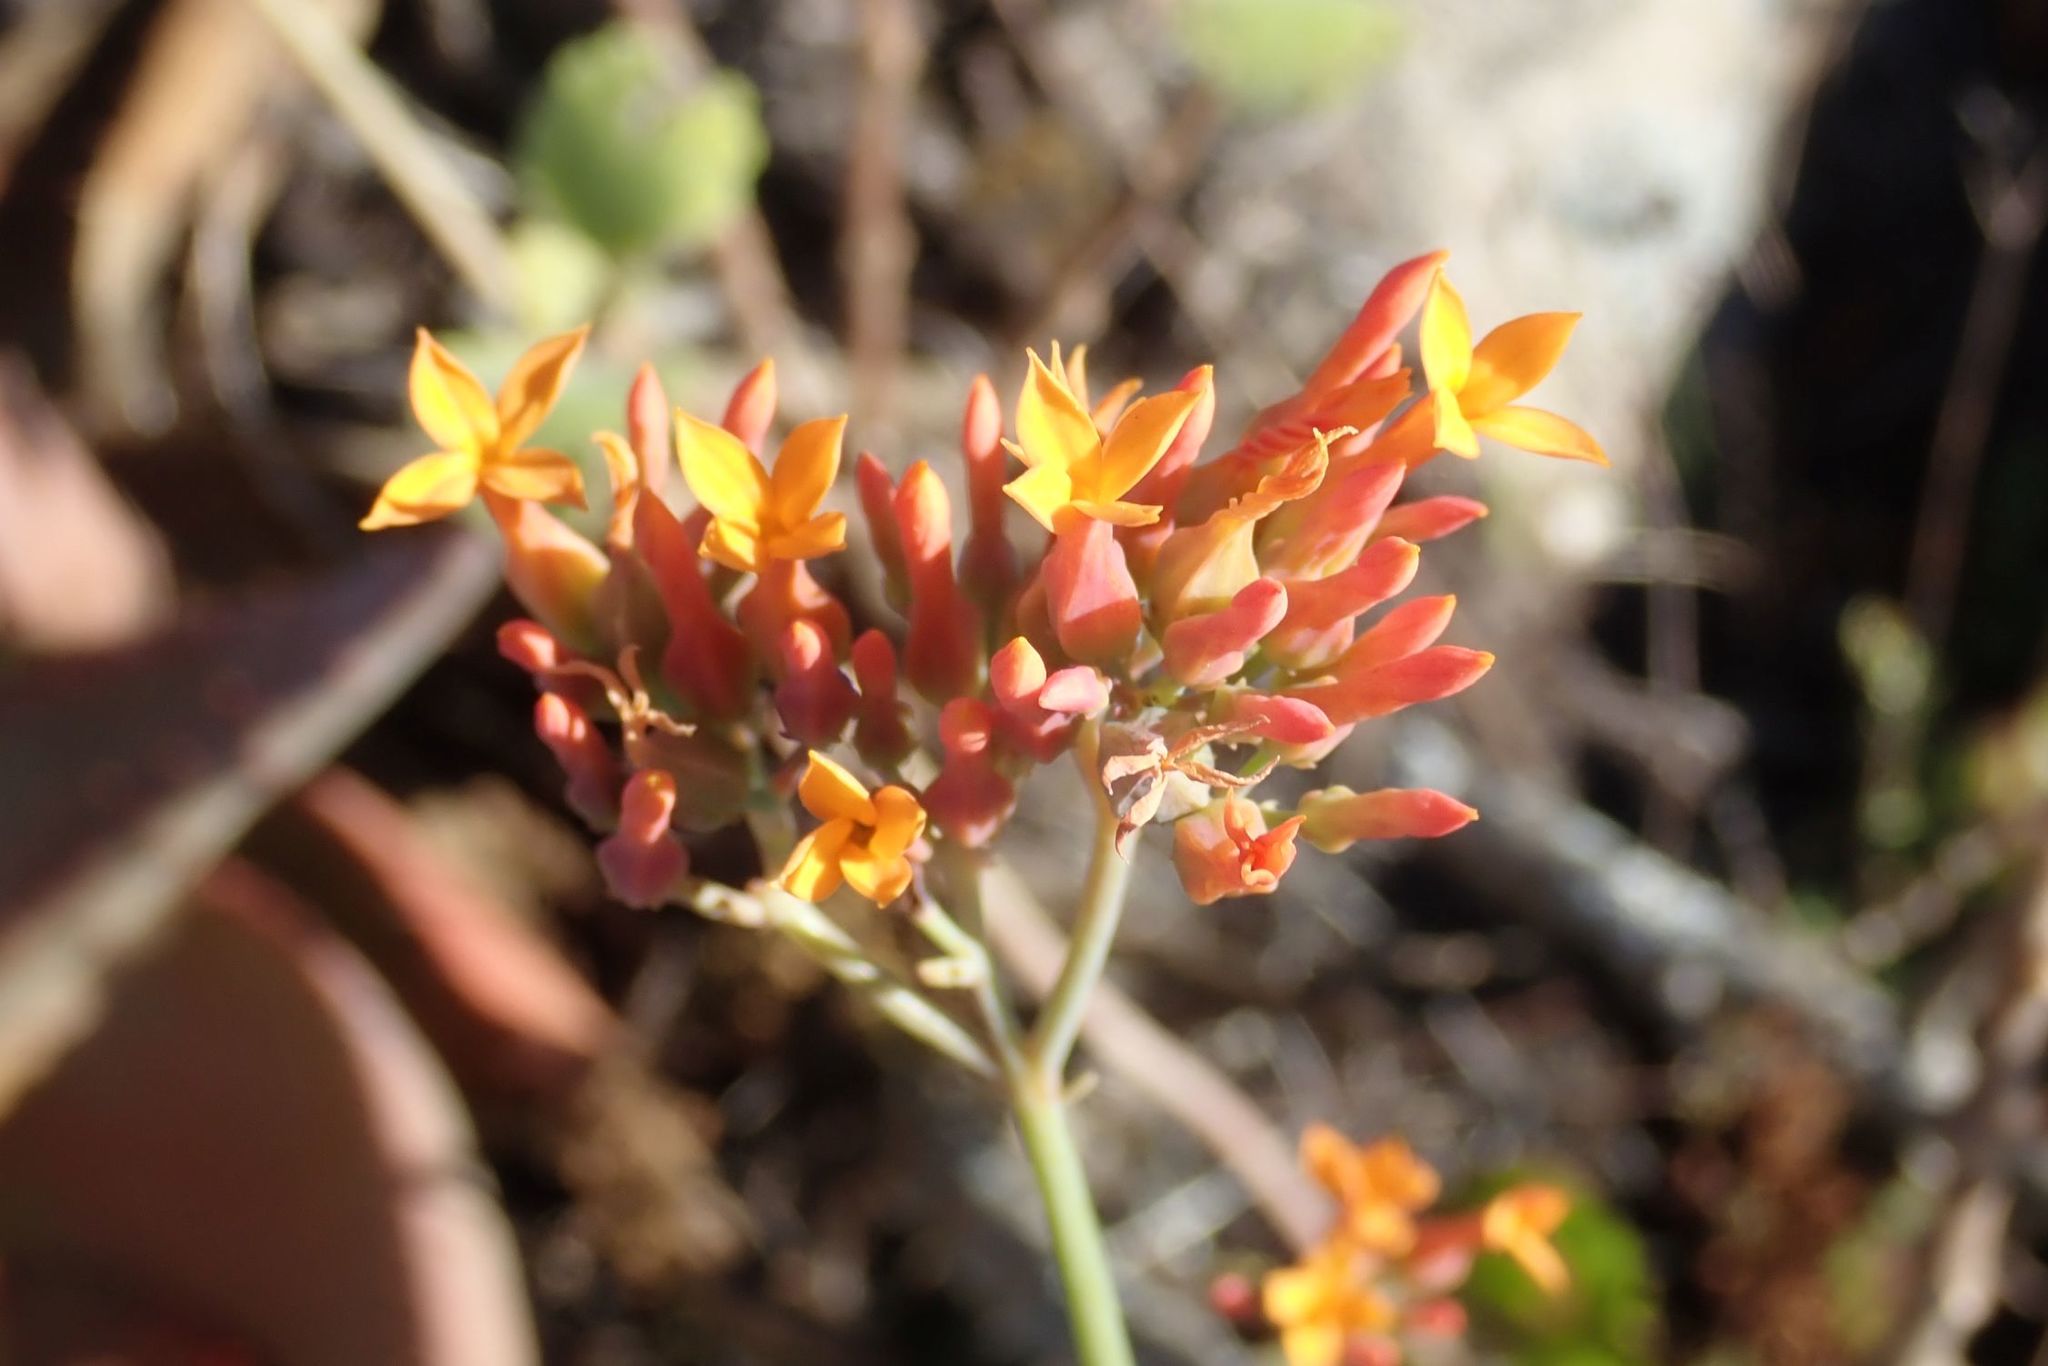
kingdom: Plantae
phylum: Tracheophyta
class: Magnoliopsida
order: Saxifragales
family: Crassulaceae
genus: Kalanchoe
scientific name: Kalanchoe rotundifolia
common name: Common kalanchoe
